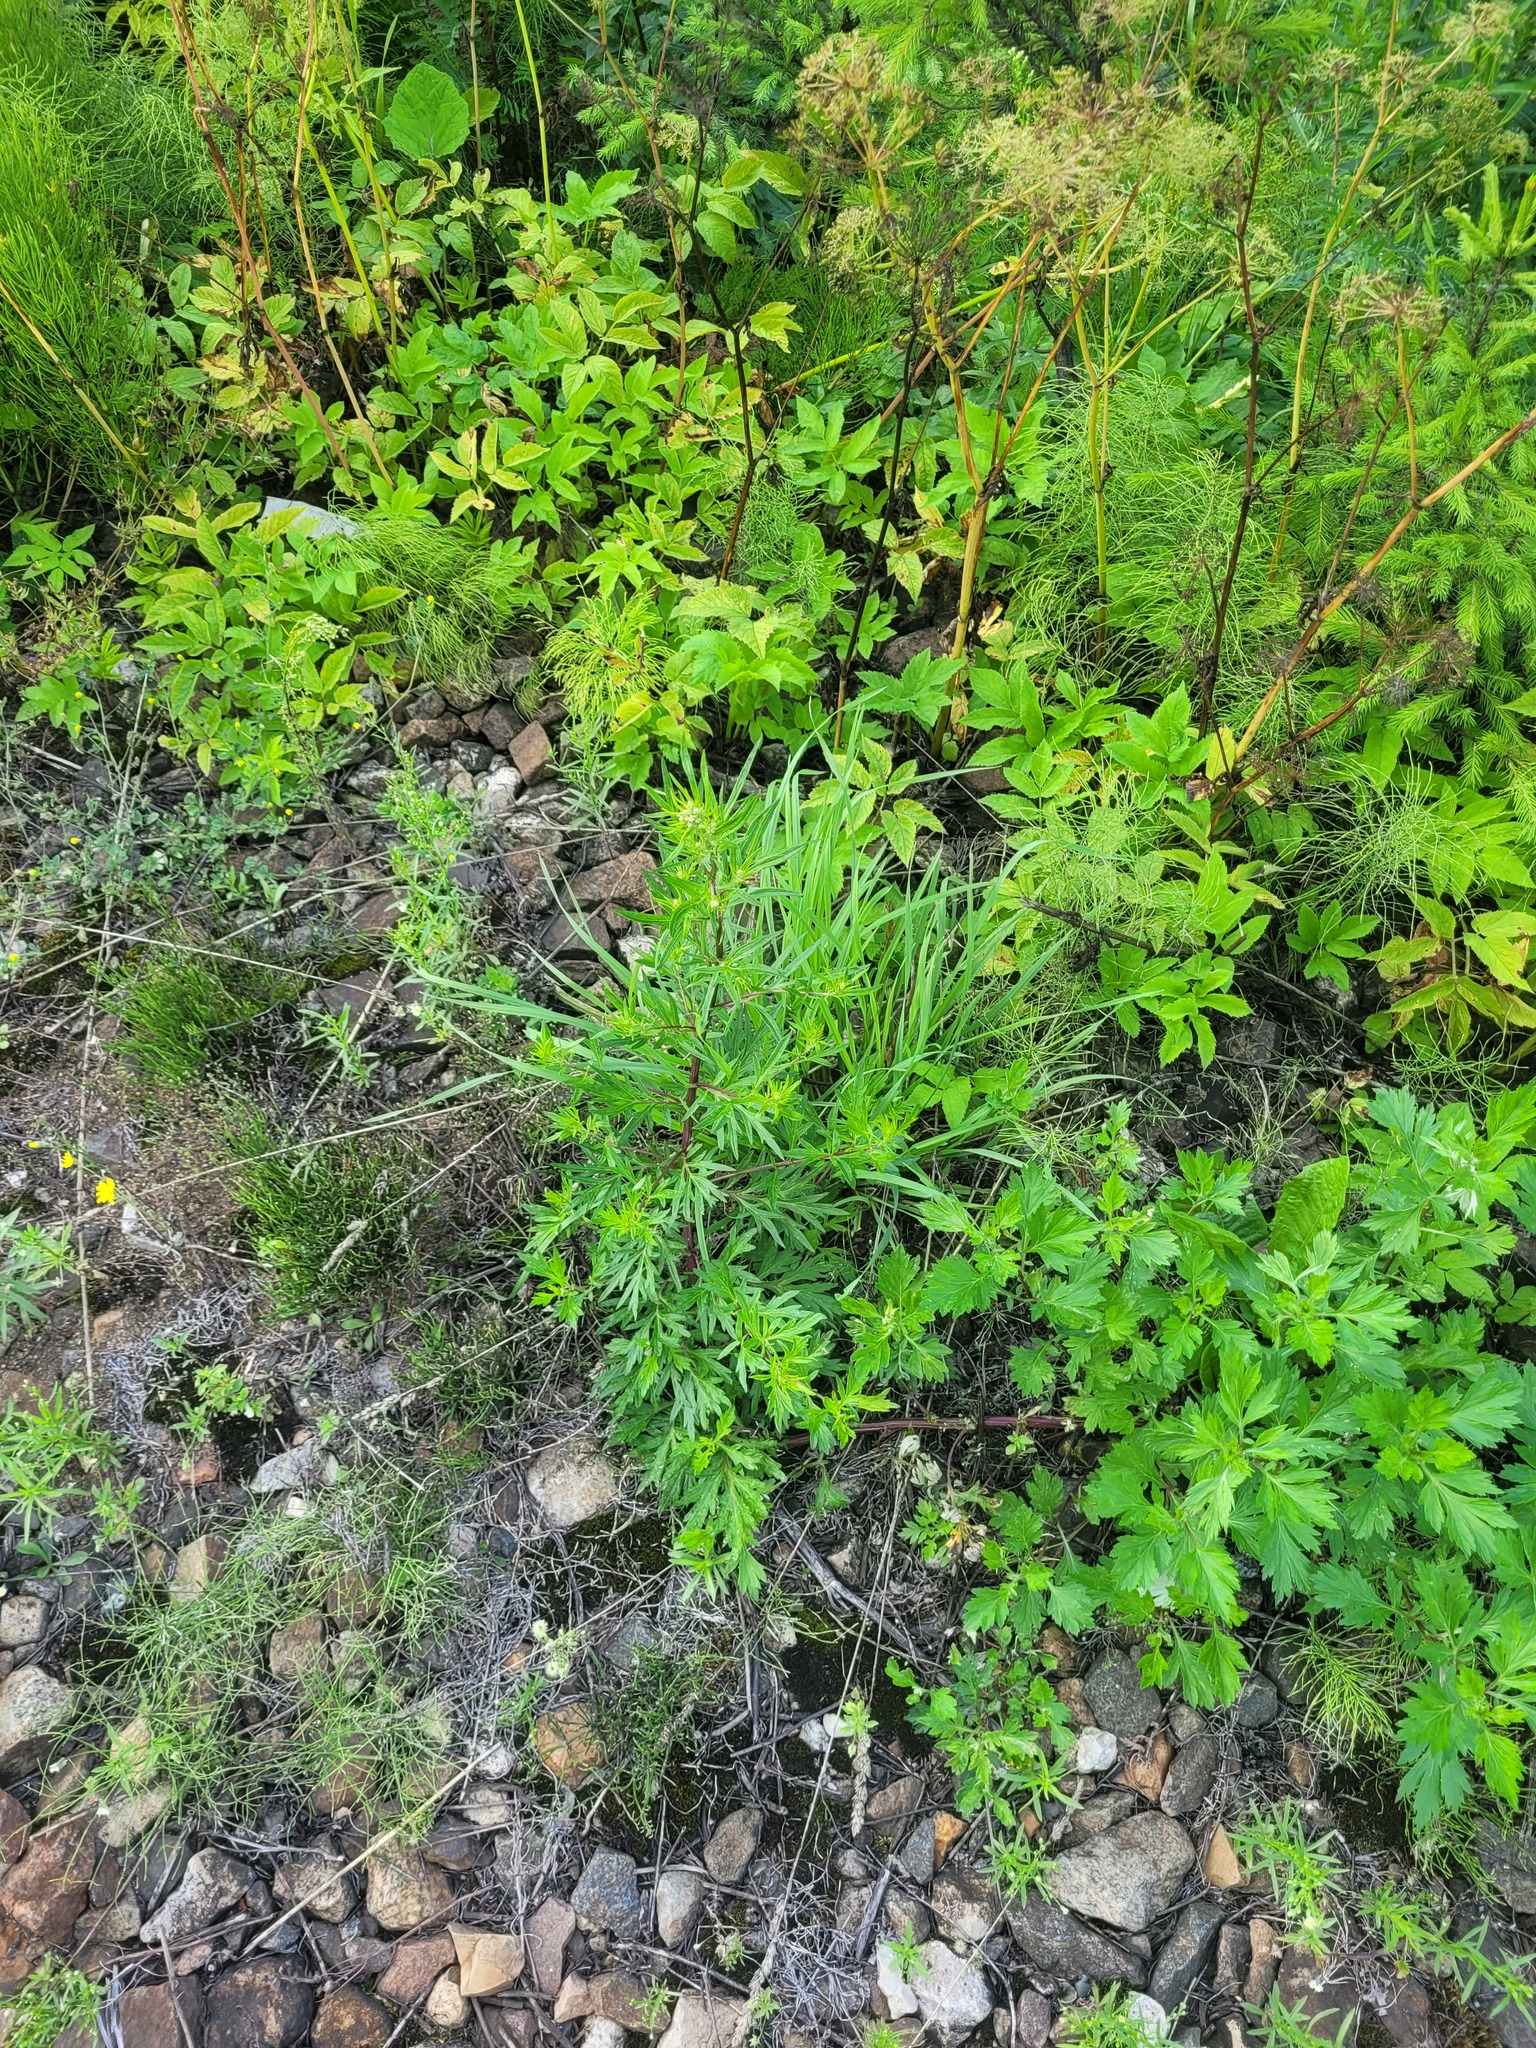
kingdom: Plantae
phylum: Tracheophyta
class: Magnoliopsida
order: Asterales
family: Asteraceae
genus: Artemisia
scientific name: Artemisia vulgaris
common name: Mugwort
